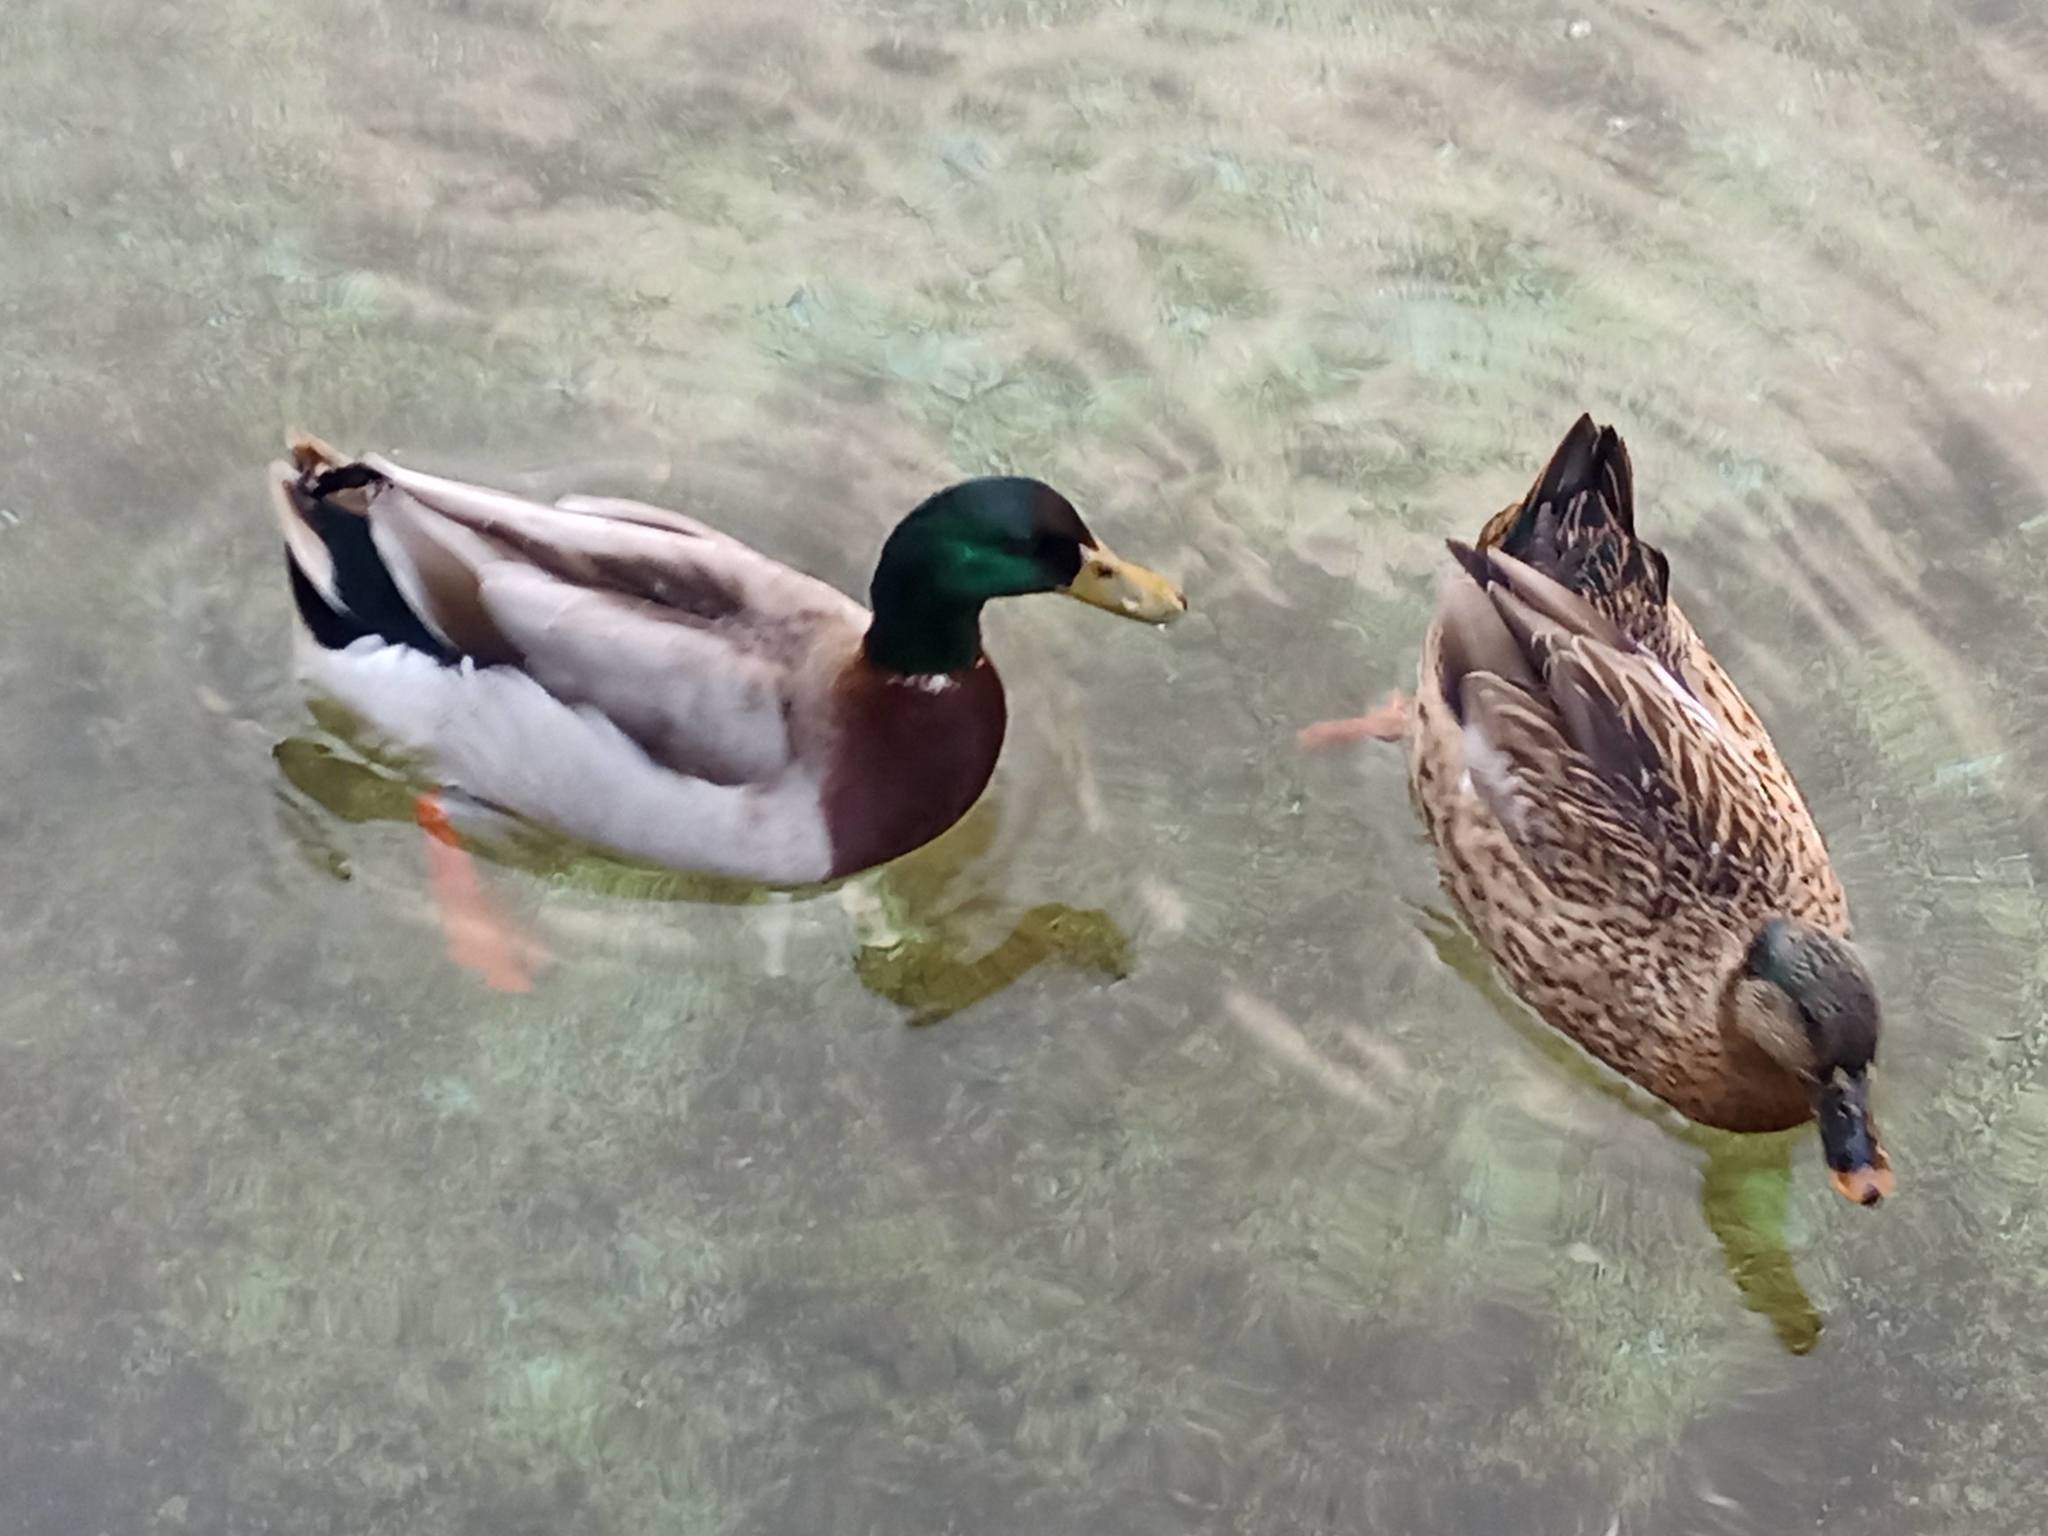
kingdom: Animalia
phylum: Chordata
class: Aves
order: Anseriformes
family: Anatidae
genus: Anas
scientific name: Anas platyrhynchos
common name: Mallard
